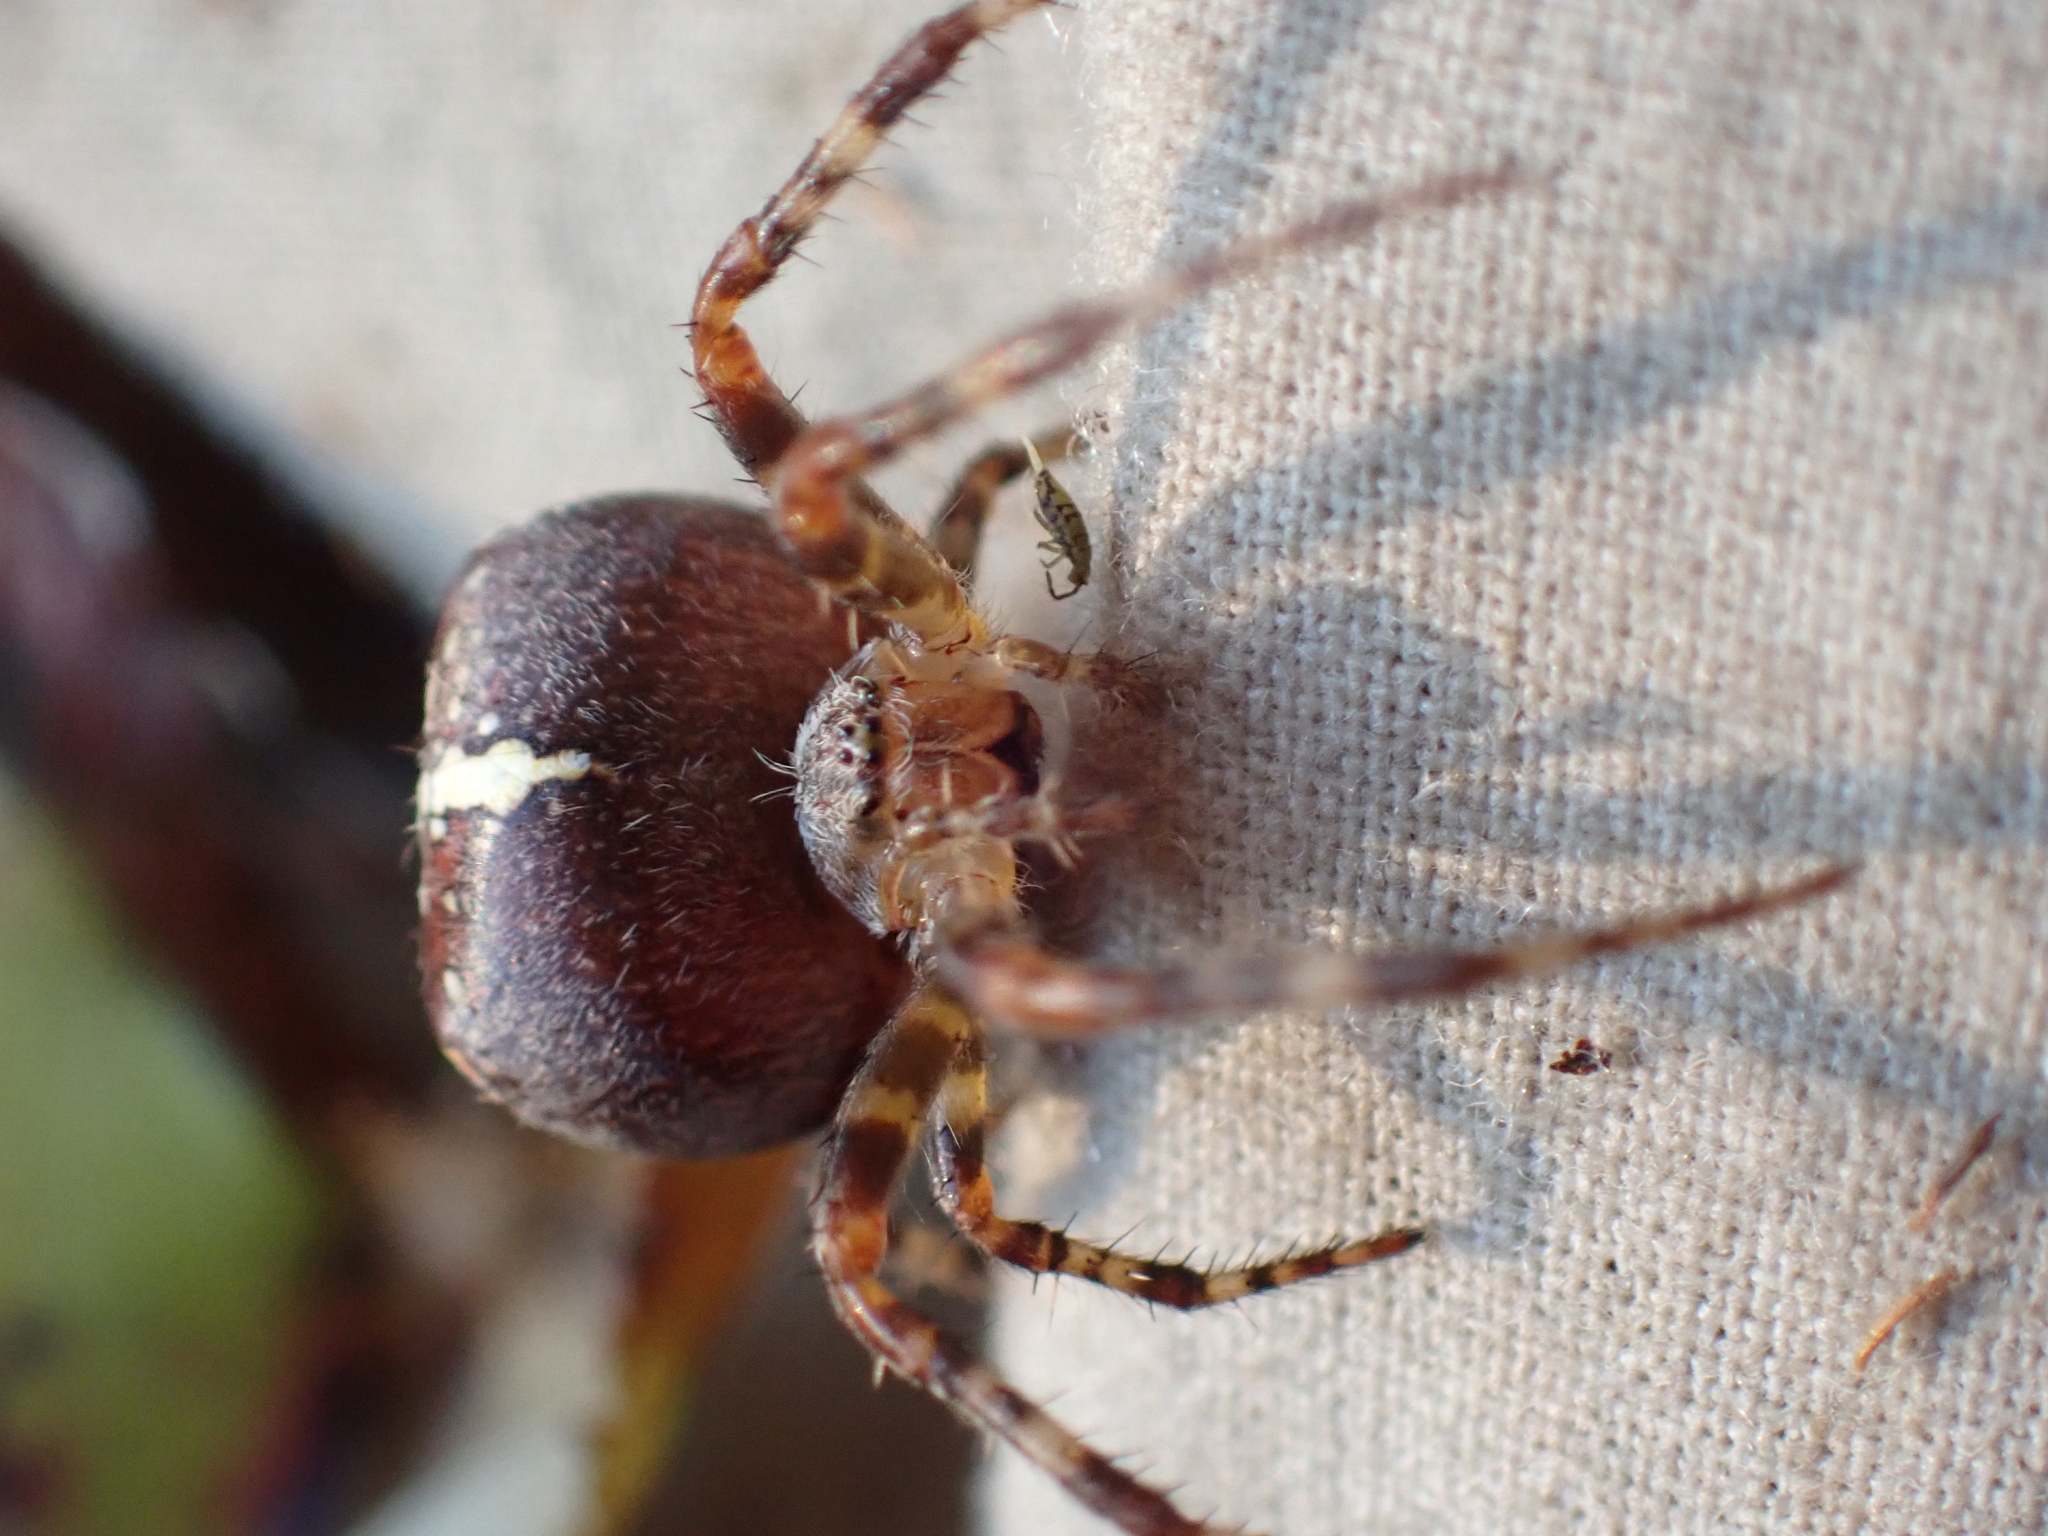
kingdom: Animalia
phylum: Arthropoda
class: Arachnida
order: Araneae
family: Araneidae
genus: Araneus
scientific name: Araneus diadematus
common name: Cross orbweaver
